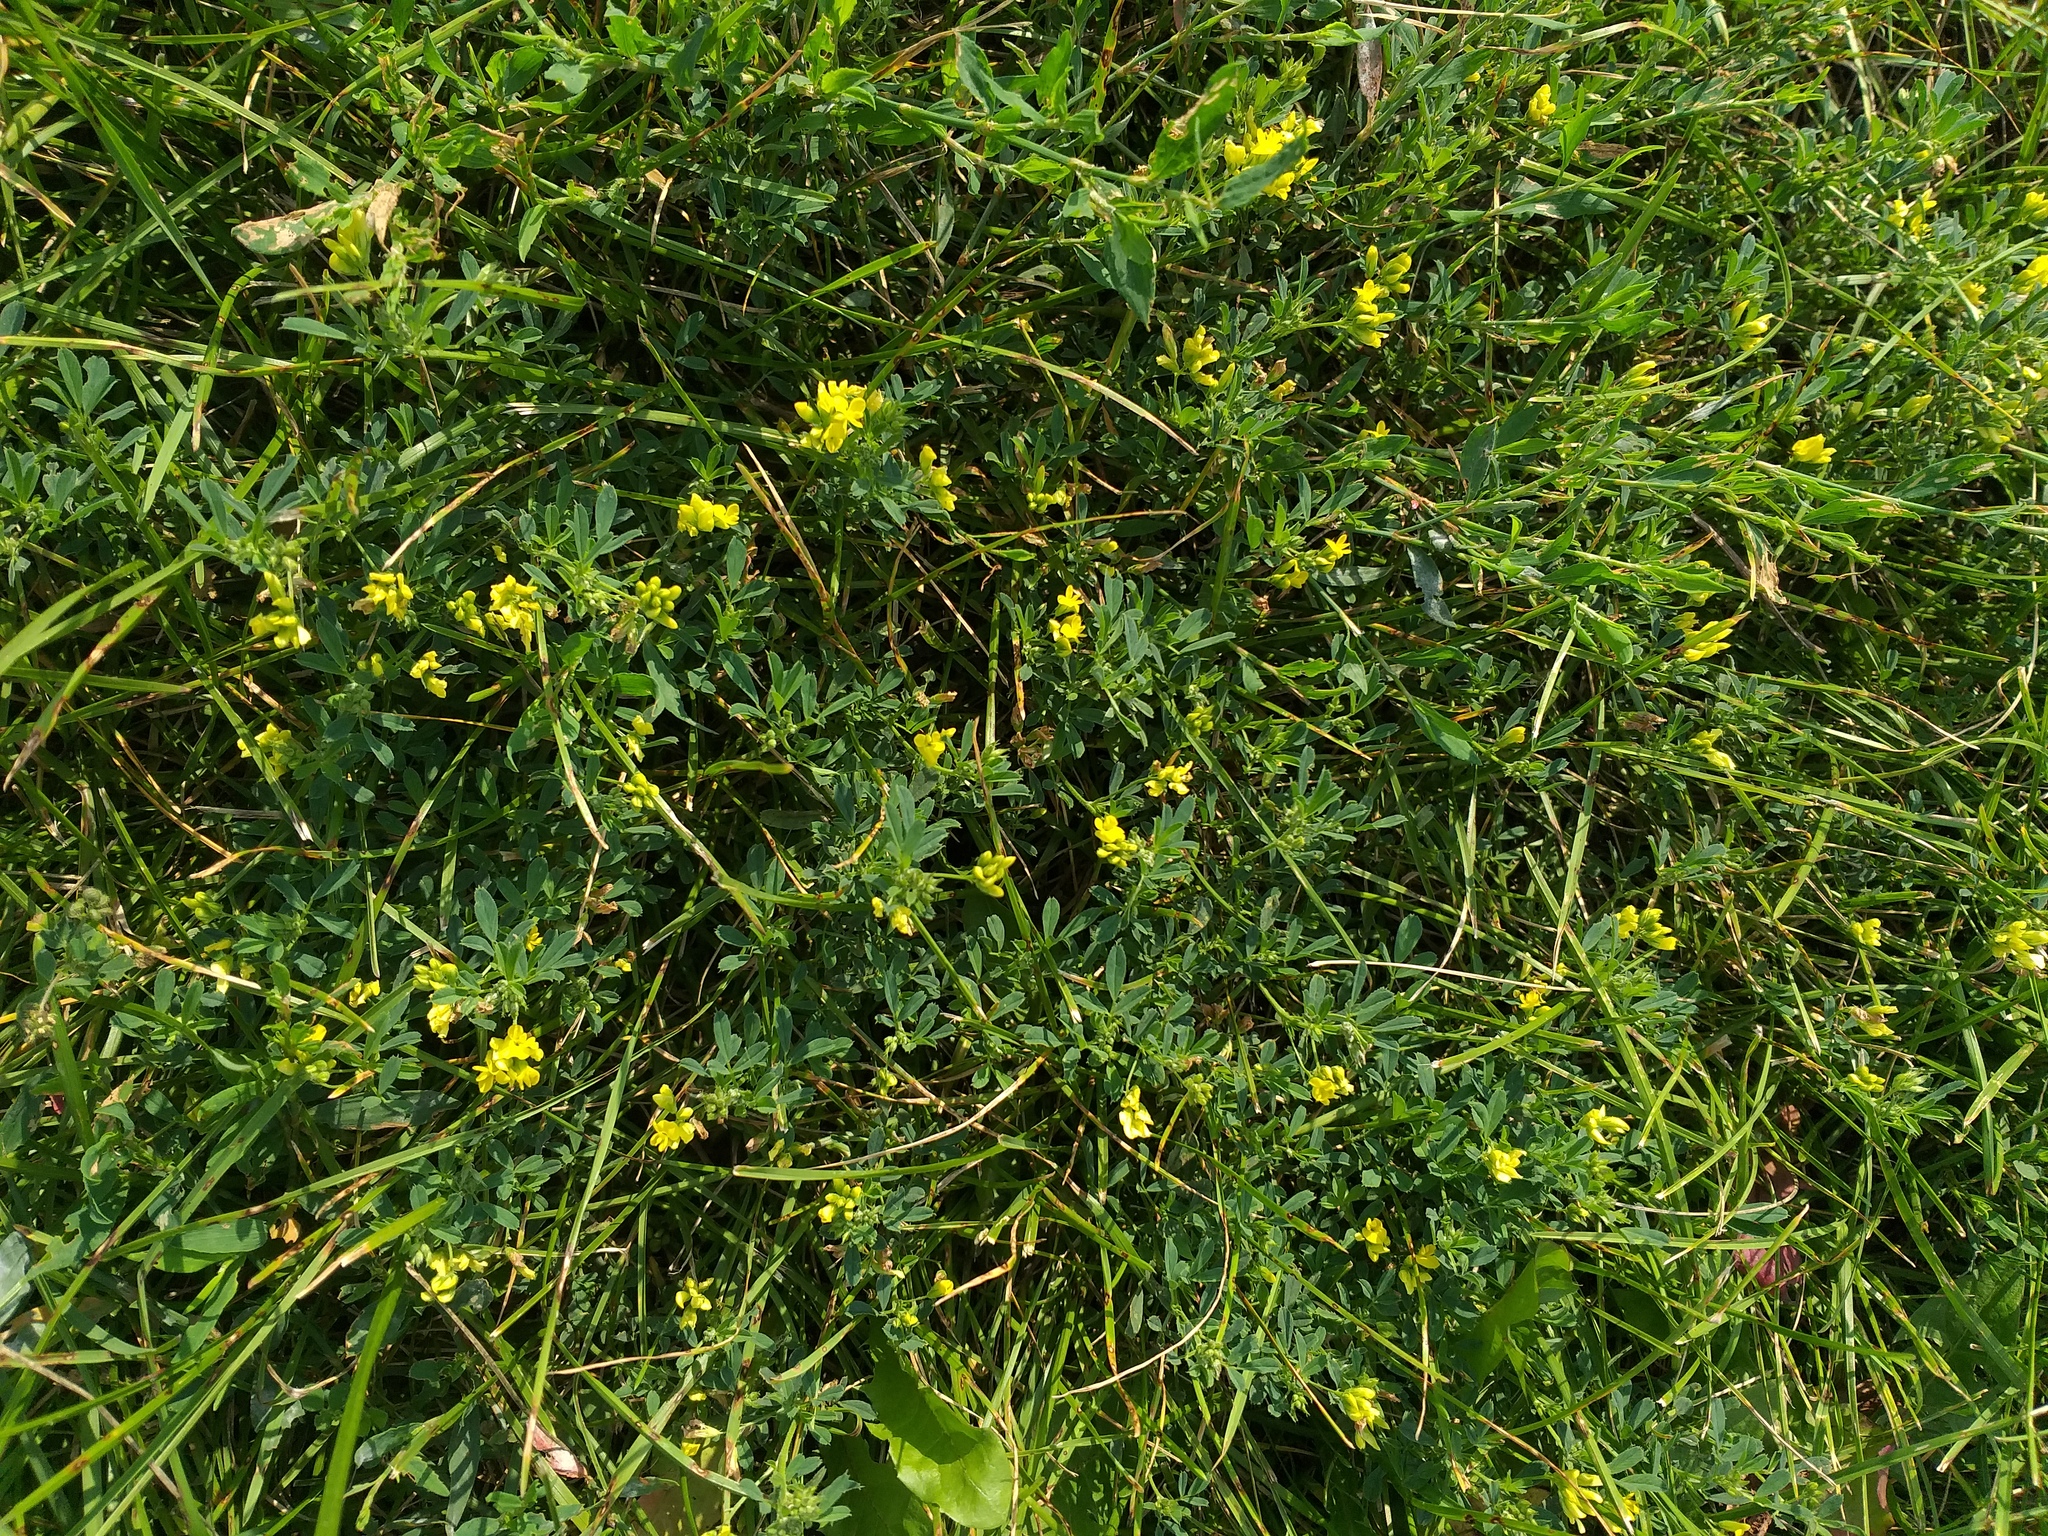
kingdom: Plantae
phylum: Tracheophyta
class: Magnoliopsida
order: Fabales
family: Fabaceae
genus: Medicago
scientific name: Medicago falcata
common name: Sickle medick
